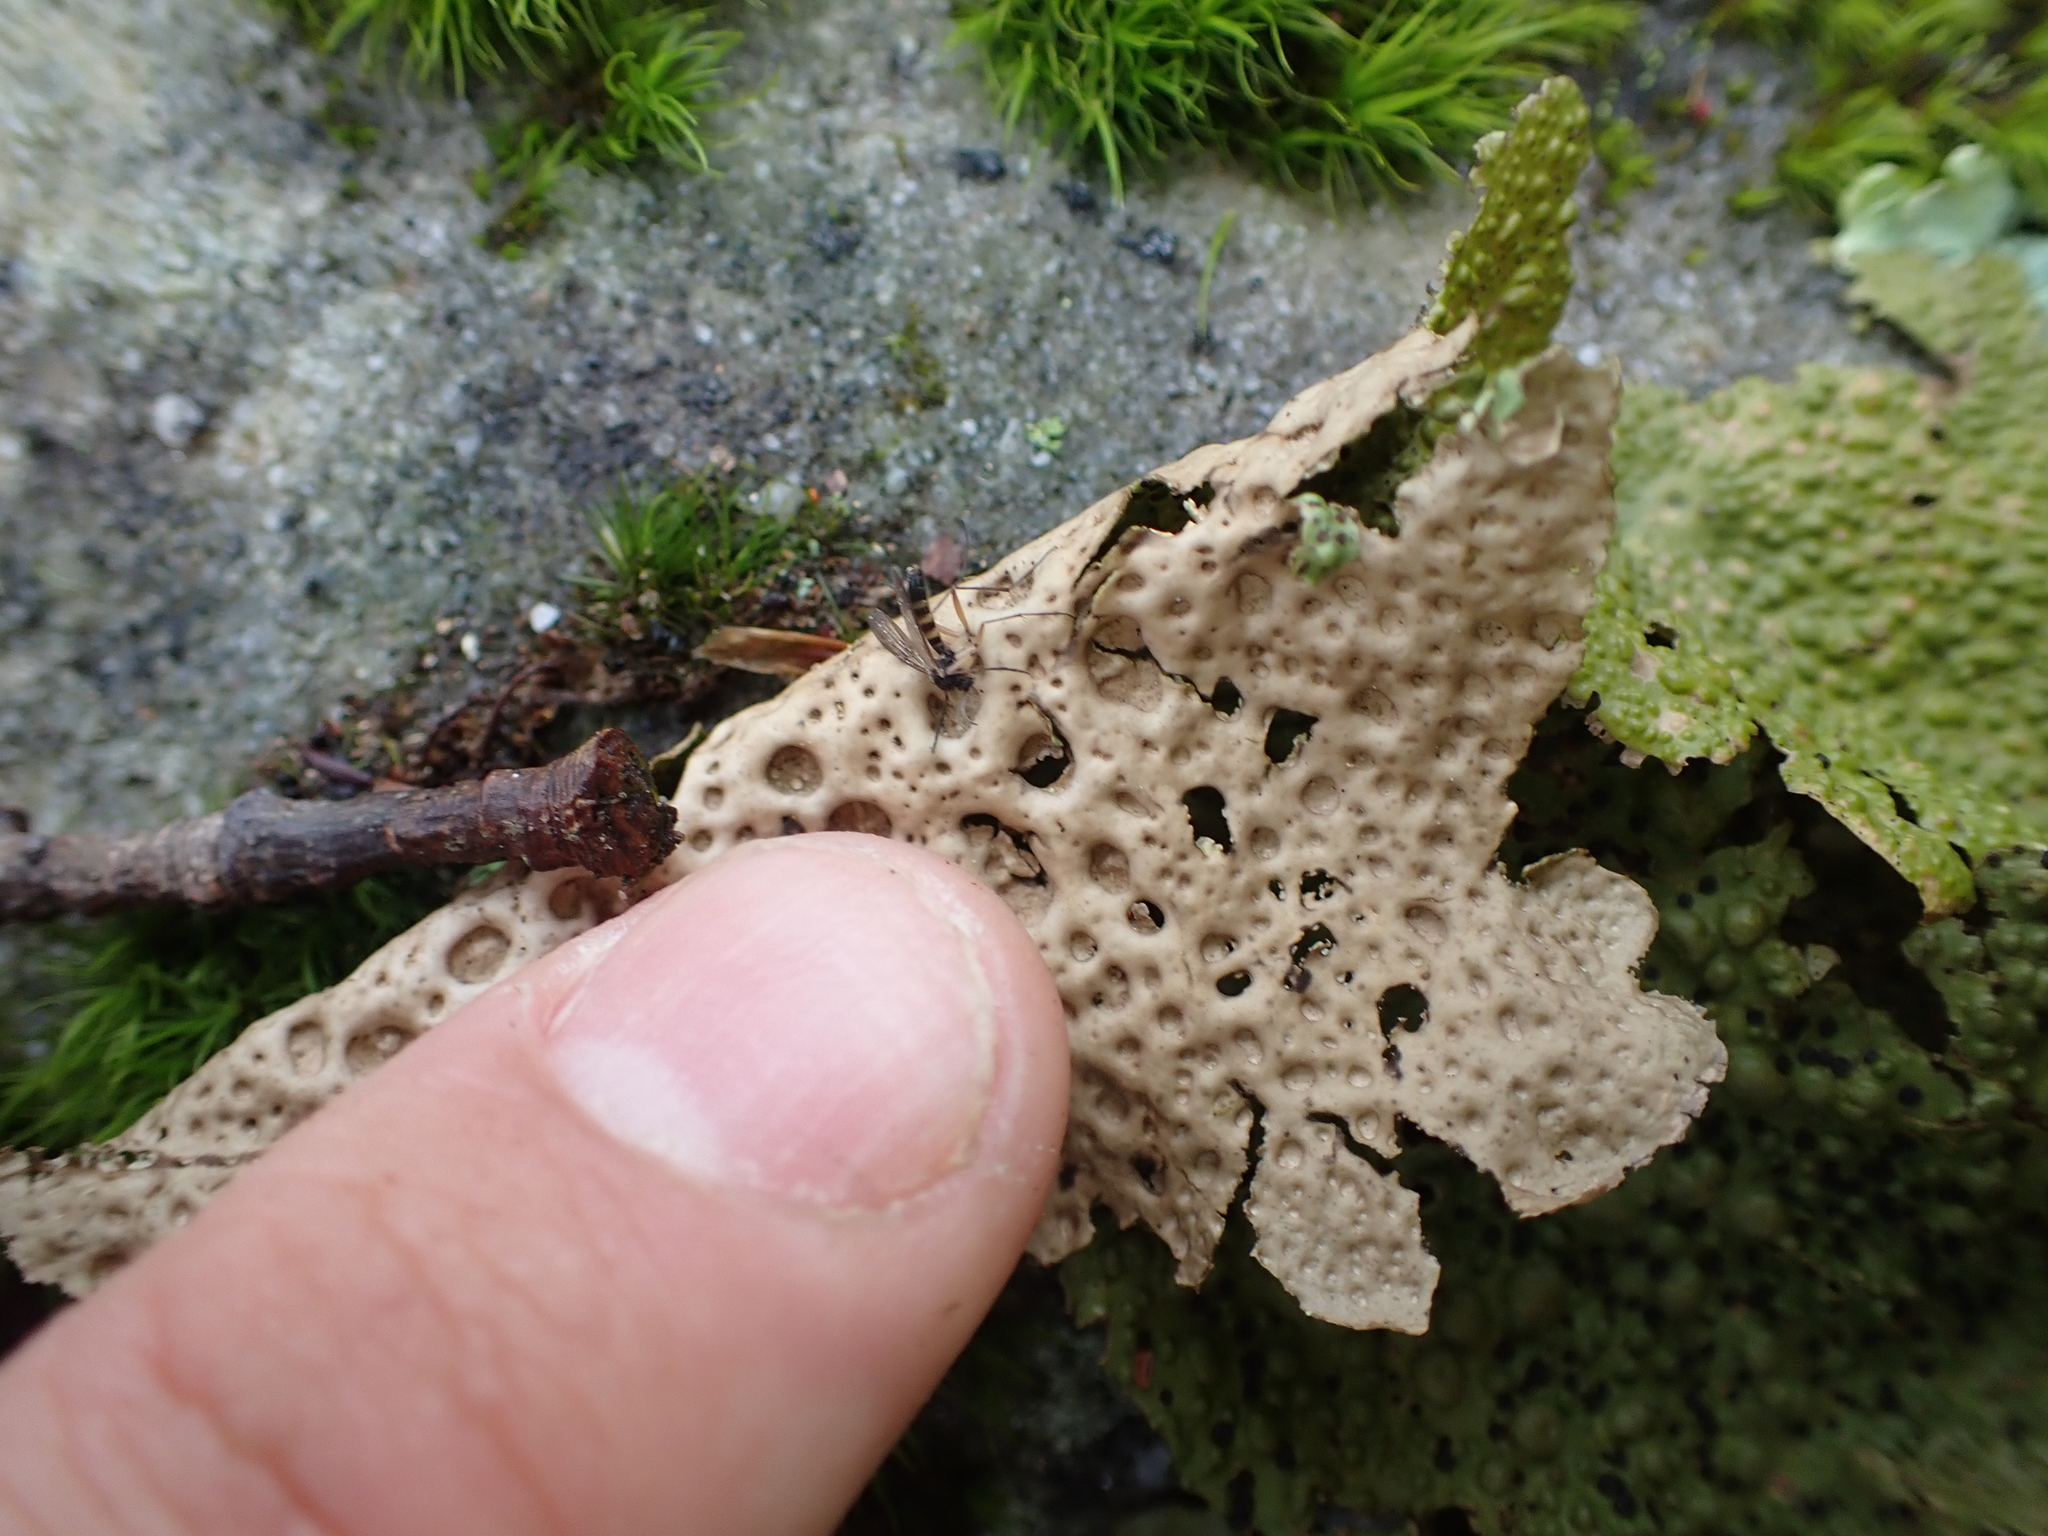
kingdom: Fungi
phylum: Ascomycota
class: Lecanoromycetes
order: Umbilicariales
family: Umbilicariaceae
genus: Lasallia
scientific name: Lasallia papulosa
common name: Common toadskin lichen
